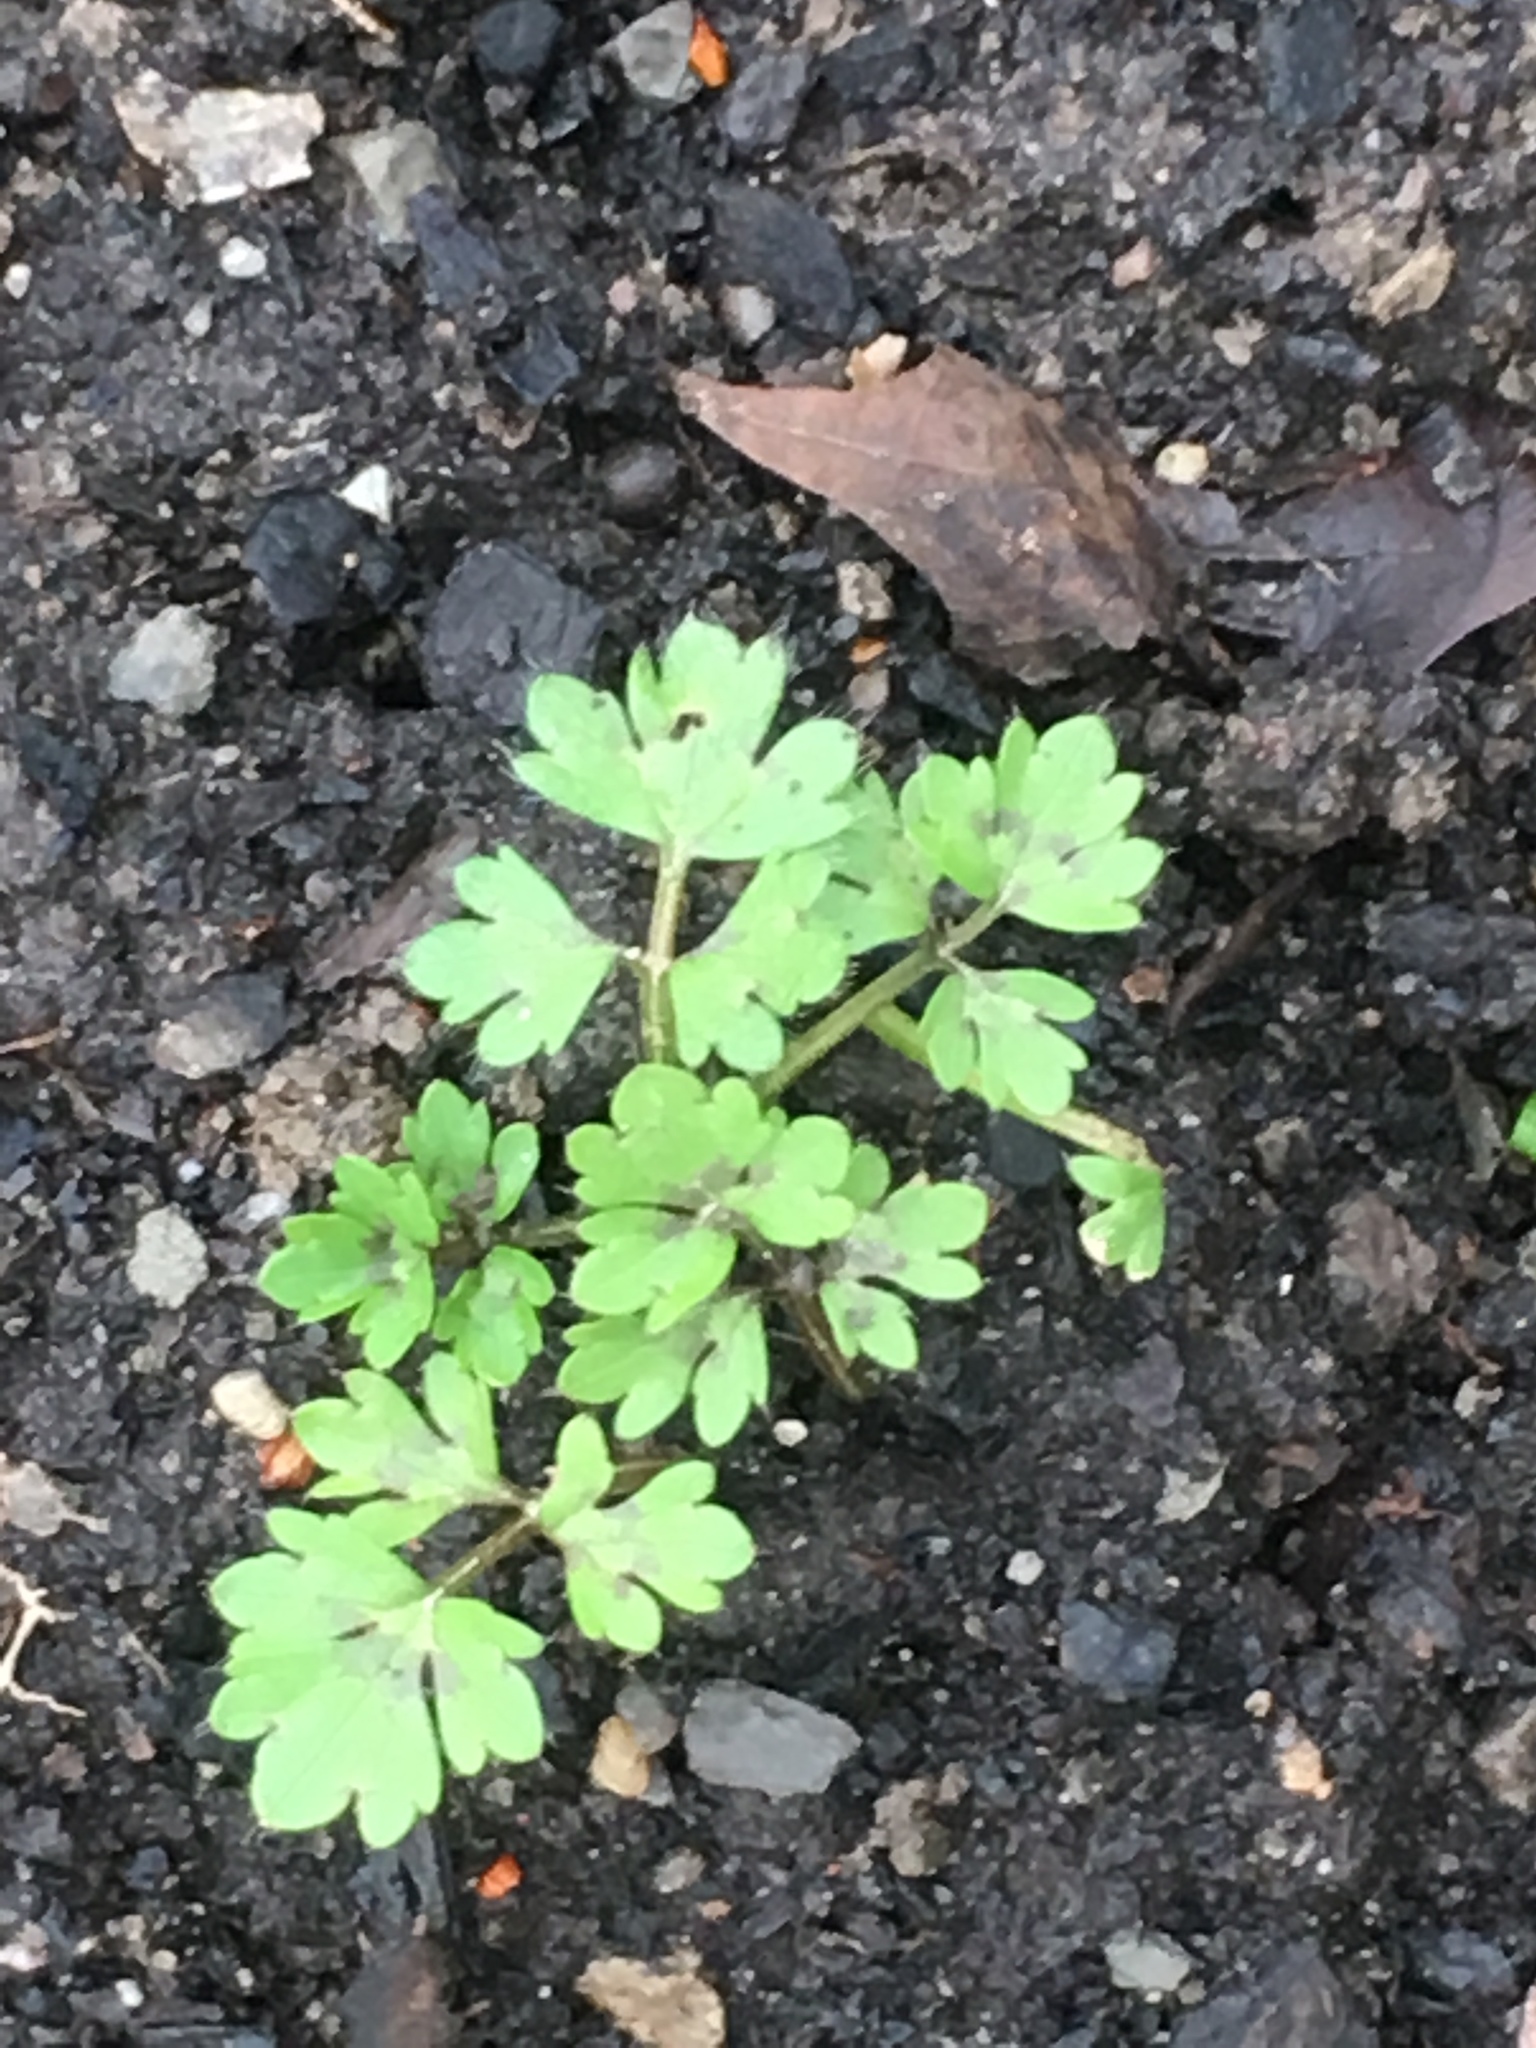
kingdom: Plantae
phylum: Tracheophyta
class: Magnoliopsida
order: Ranunculales
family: Ranunculaceae
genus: Ranunculus
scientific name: Ranunculus repens
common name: Creeping buttercup
